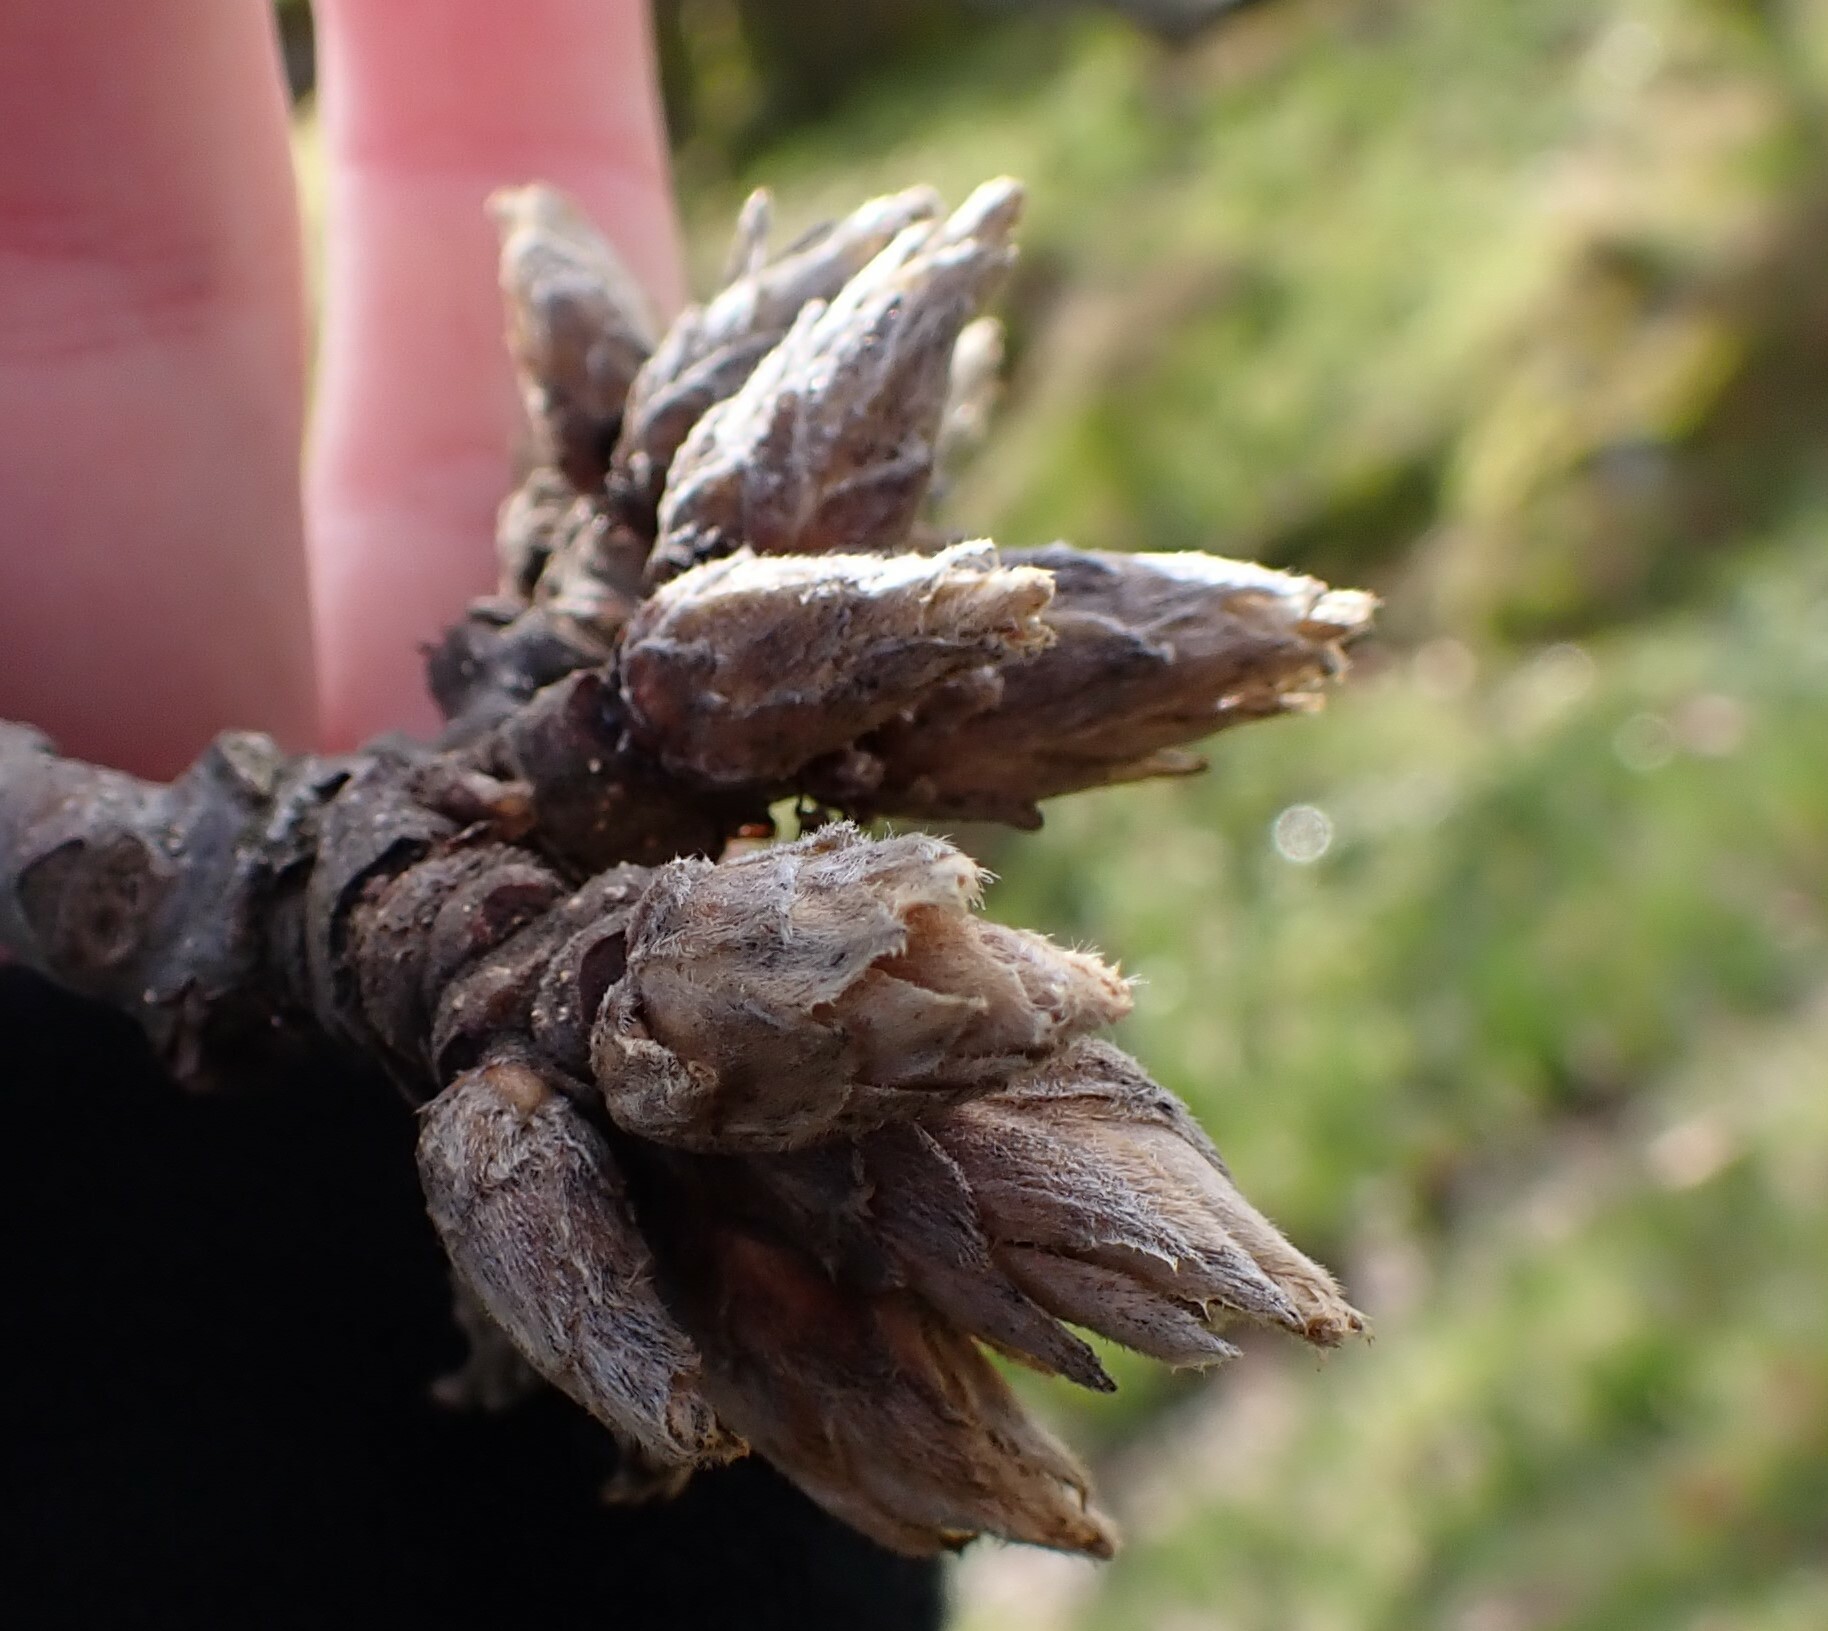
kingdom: Plantae
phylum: Tracheophyta
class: Magnoliopsida
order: Fagales
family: Fagaceae
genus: Quercus
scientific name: Quercus garryana
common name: Garry oak
